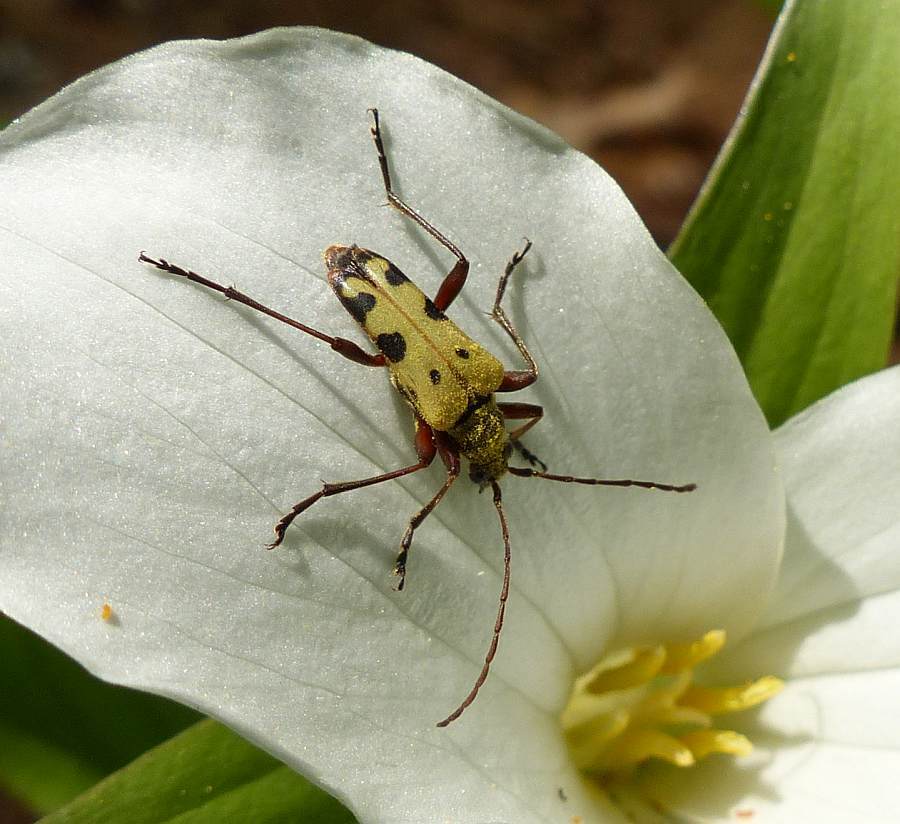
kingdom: Animalia
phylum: Arthropoda
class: Insecta
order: Coleoptera
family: Cerambycidae
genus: Evodinus
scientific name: Evodinus monticola
